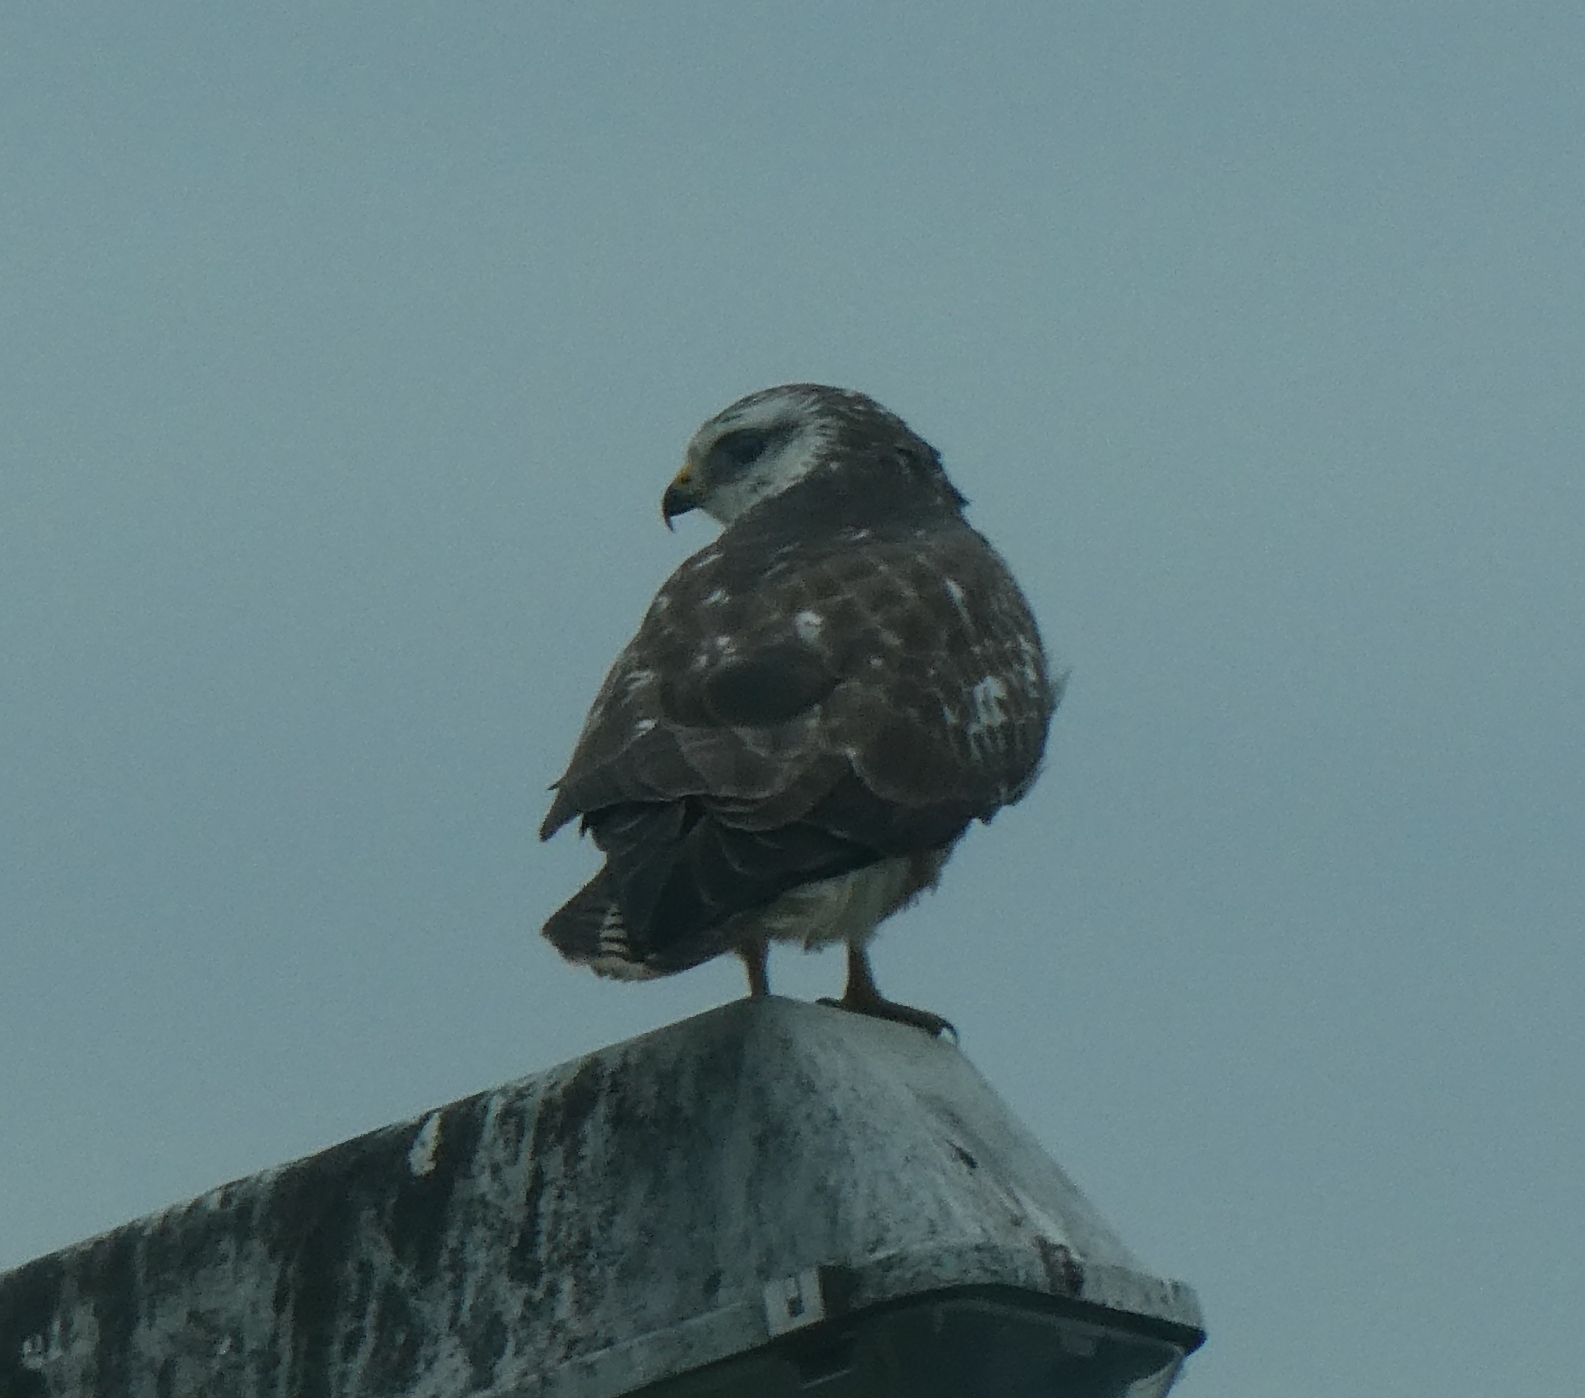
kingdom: Animalia
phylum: Chordata
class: Aves
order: Accipitriformes
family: Accipitridae
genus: Buteo
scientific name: Buteo buteo
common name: Common buzzard
